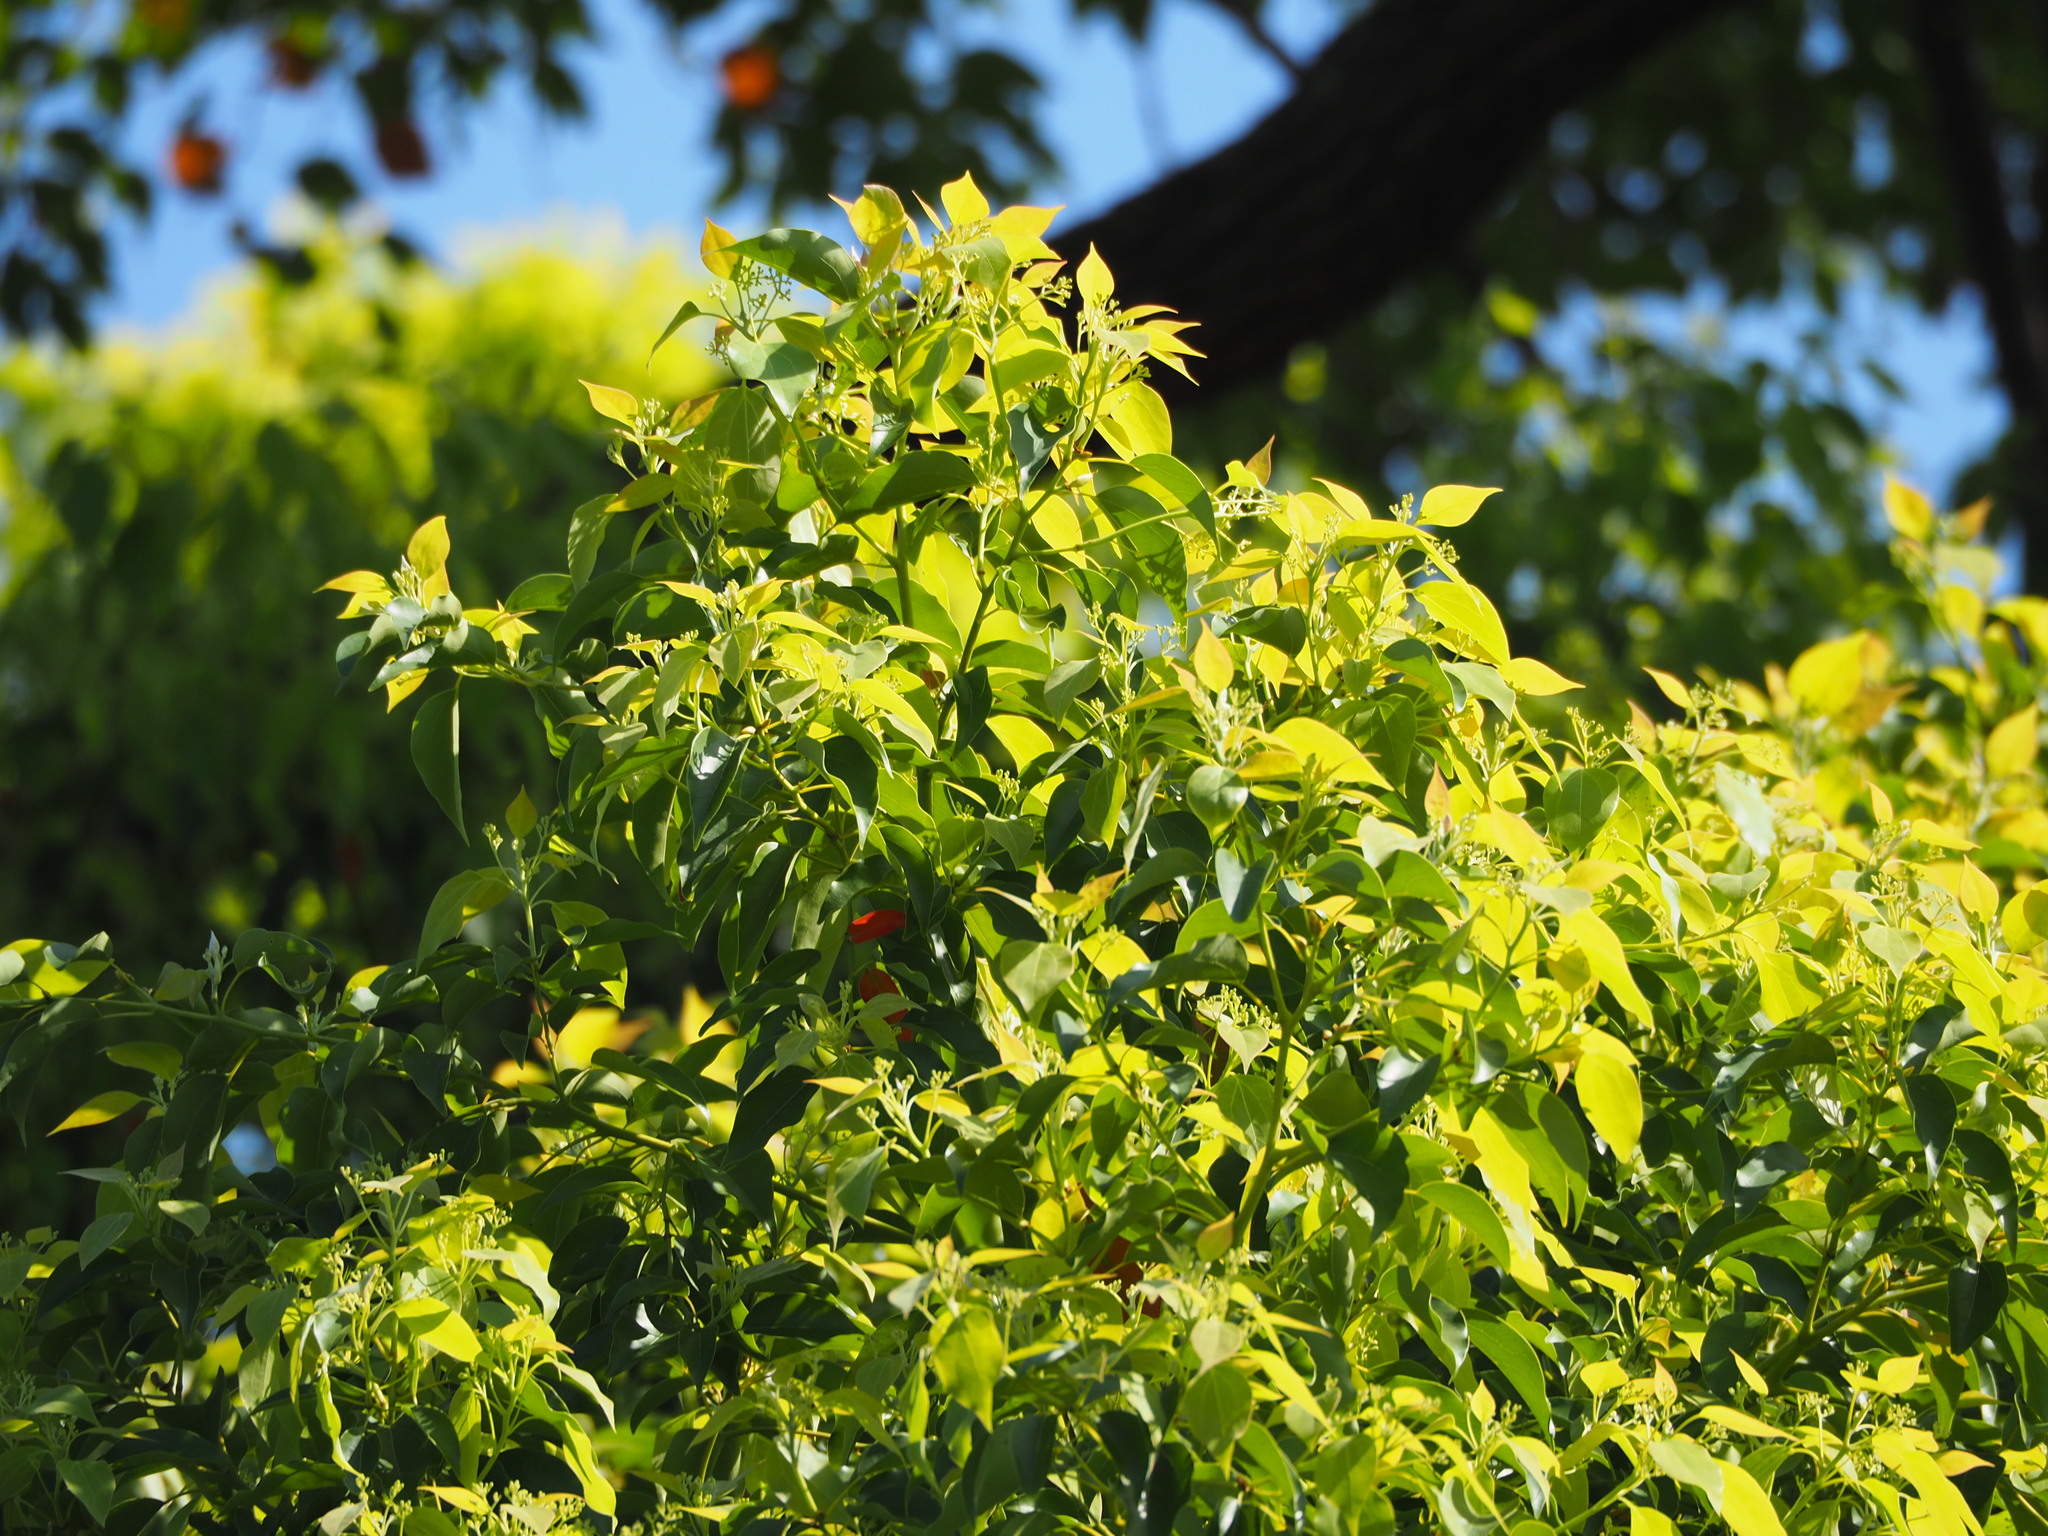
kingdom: Plantae
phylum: Tracheophyta
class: Magnoliopsida
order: Laurales
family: Lauraceae
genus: Cinnamomum
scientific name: Cinnamomum camphora
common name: Camphortree
